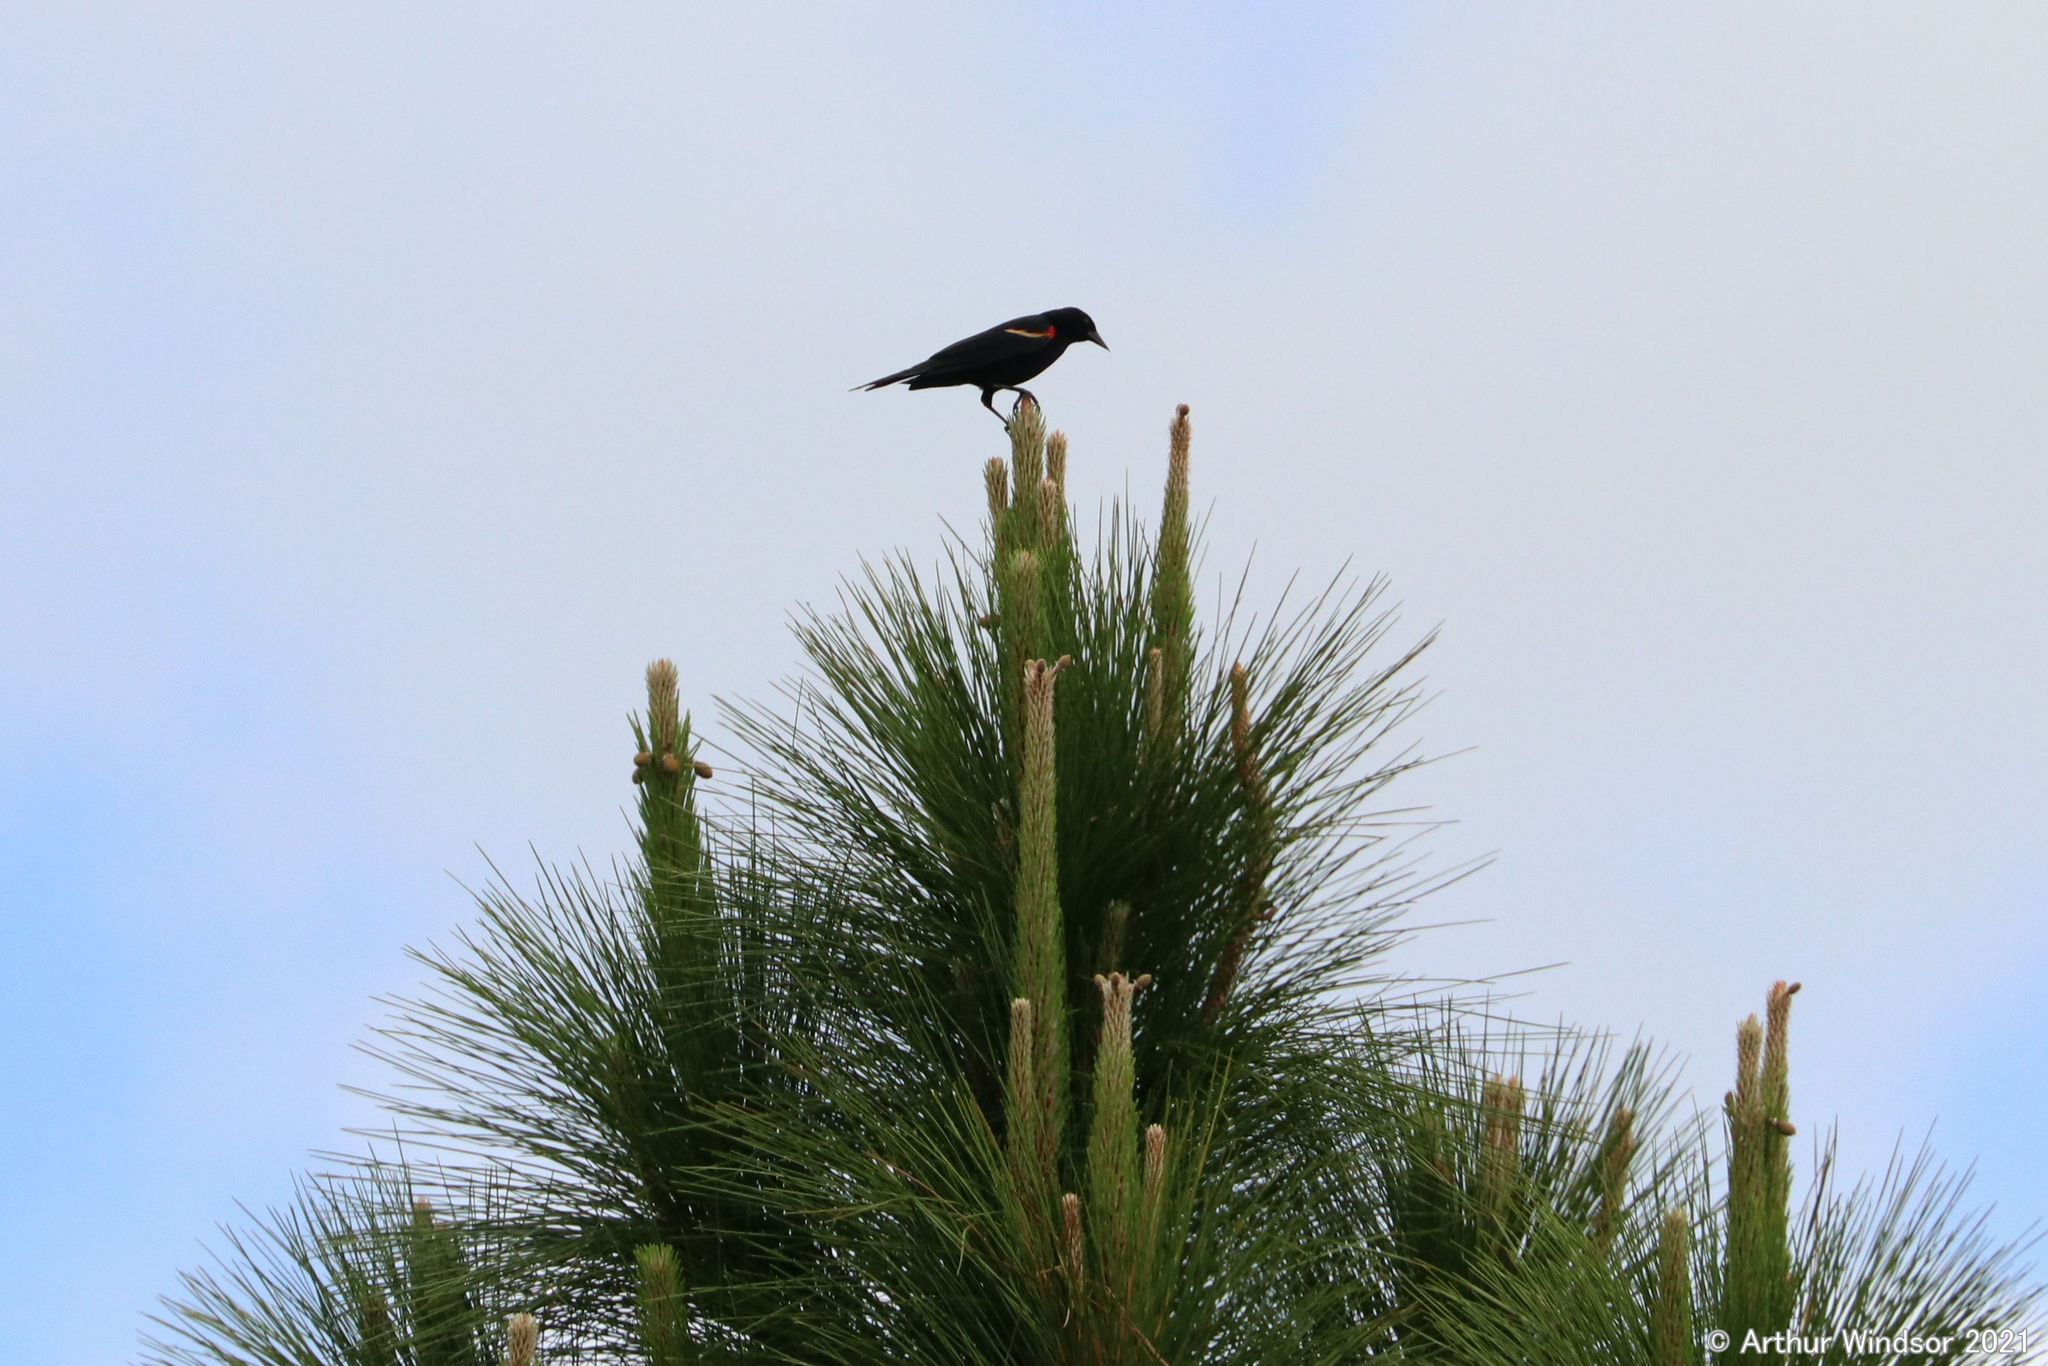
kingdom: Animalia
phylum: Chordata
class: Aves
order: Passeriformes
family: Icteridae
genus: Agelaius
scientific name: Agelaius phoeniceus
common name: Red-winged blackbird
